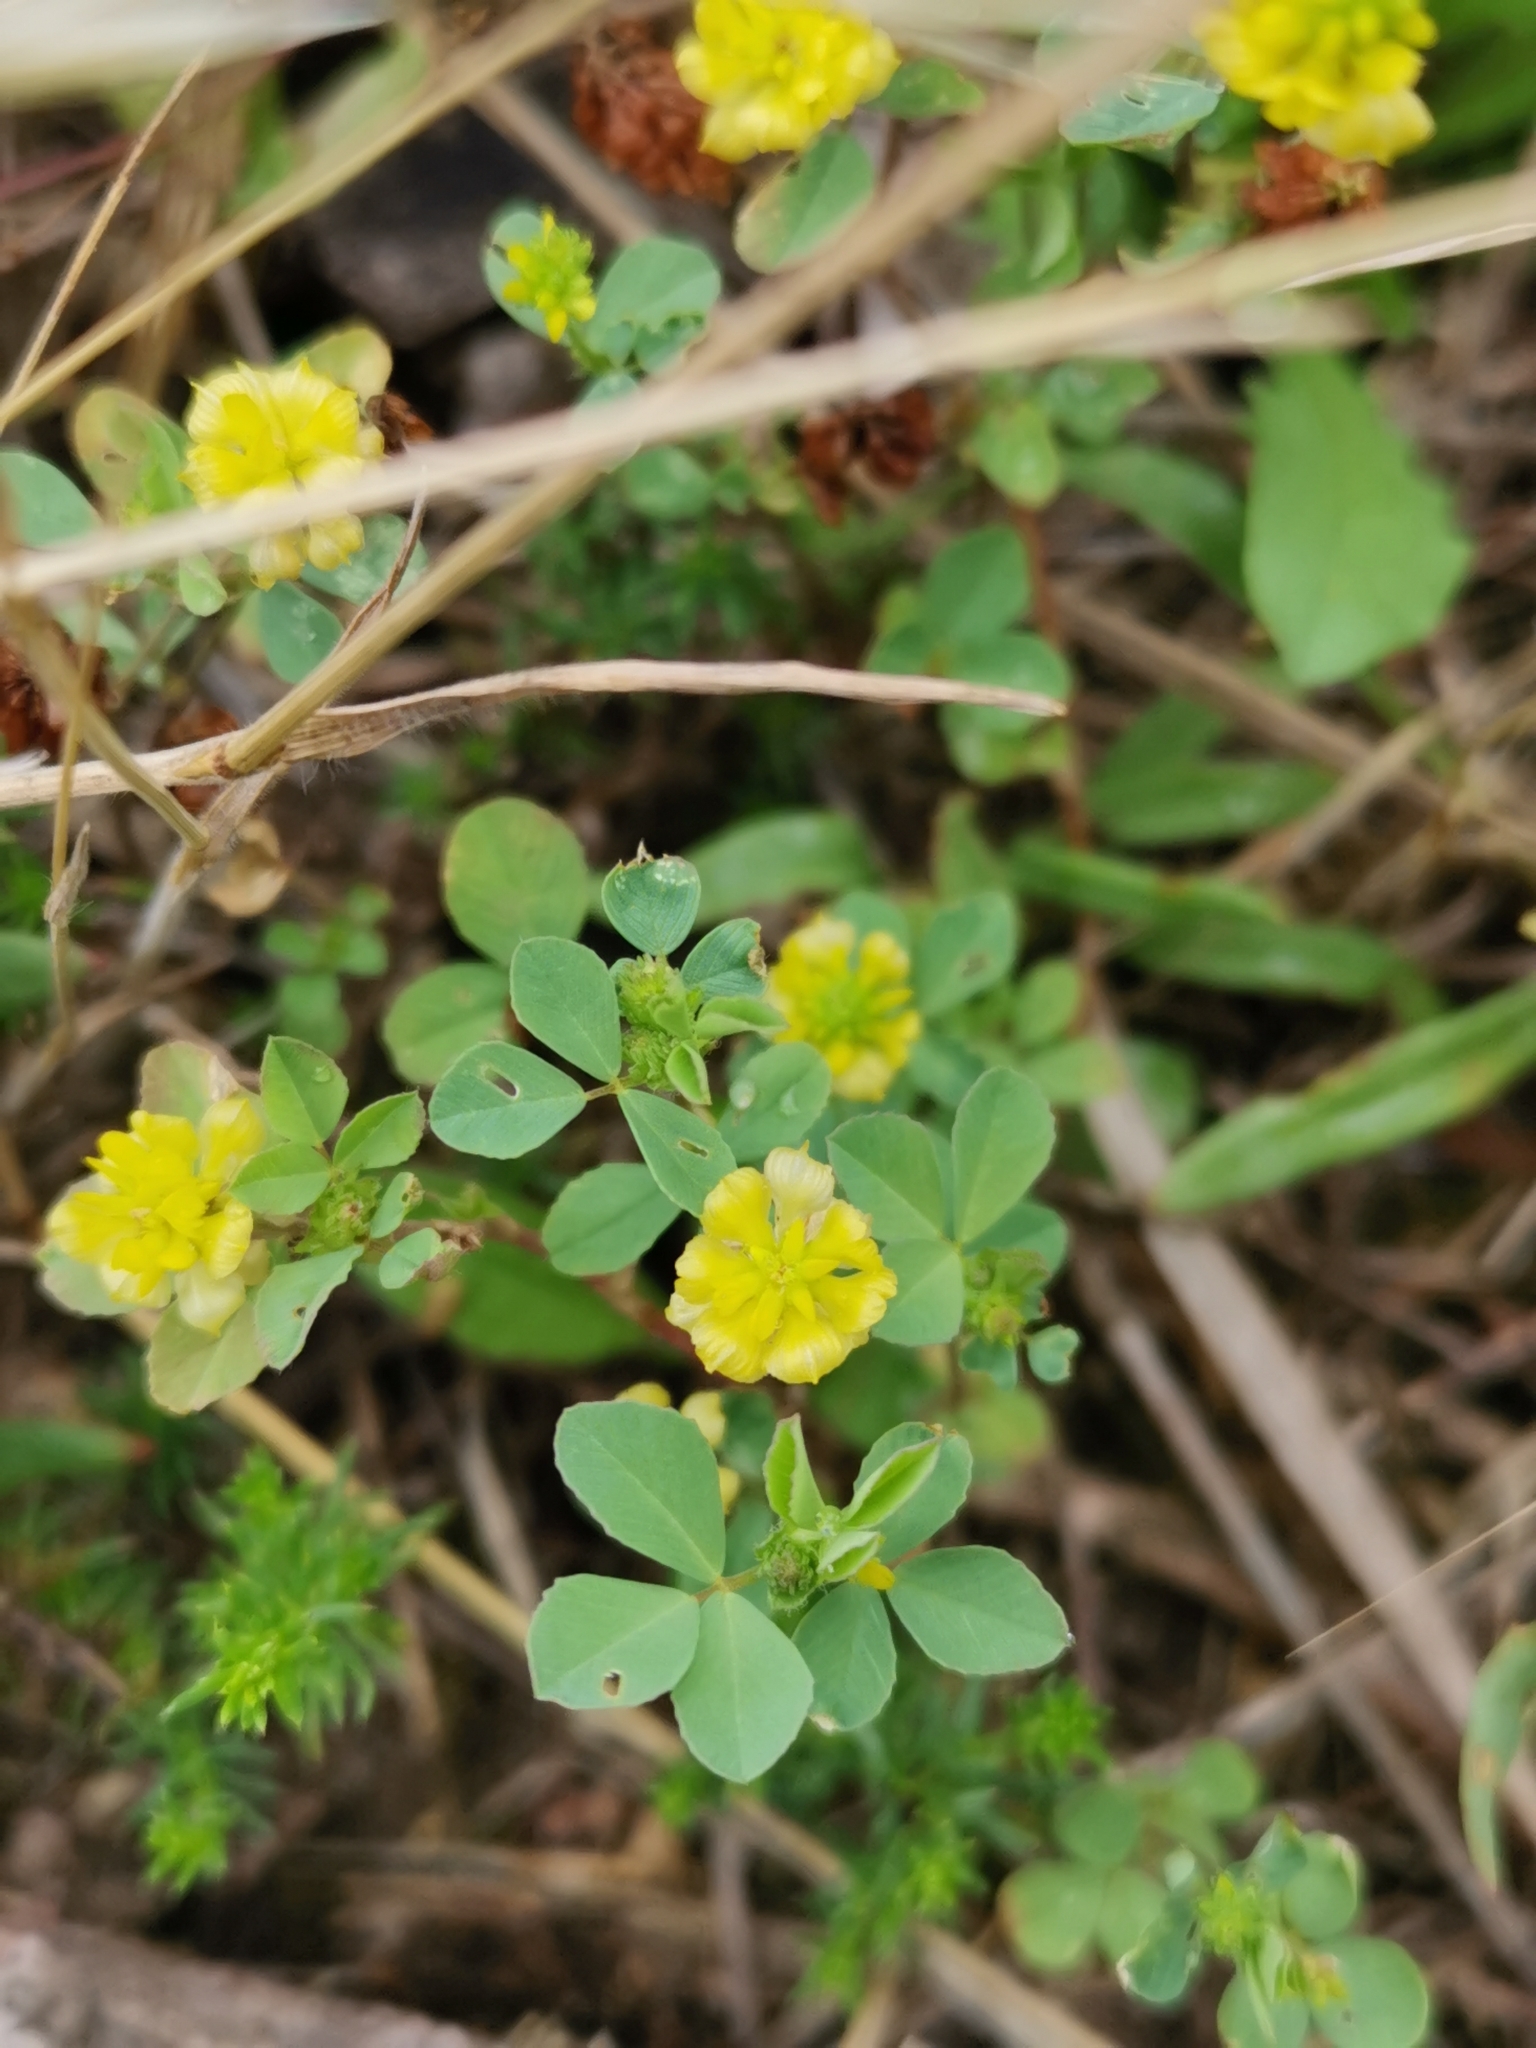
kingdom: Plantae
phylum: Tracheophyta
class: Magnoliopsida
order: Fabales
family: Fabaceae
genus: Trifolium
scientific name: Trifolium campestre
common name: Field clover
